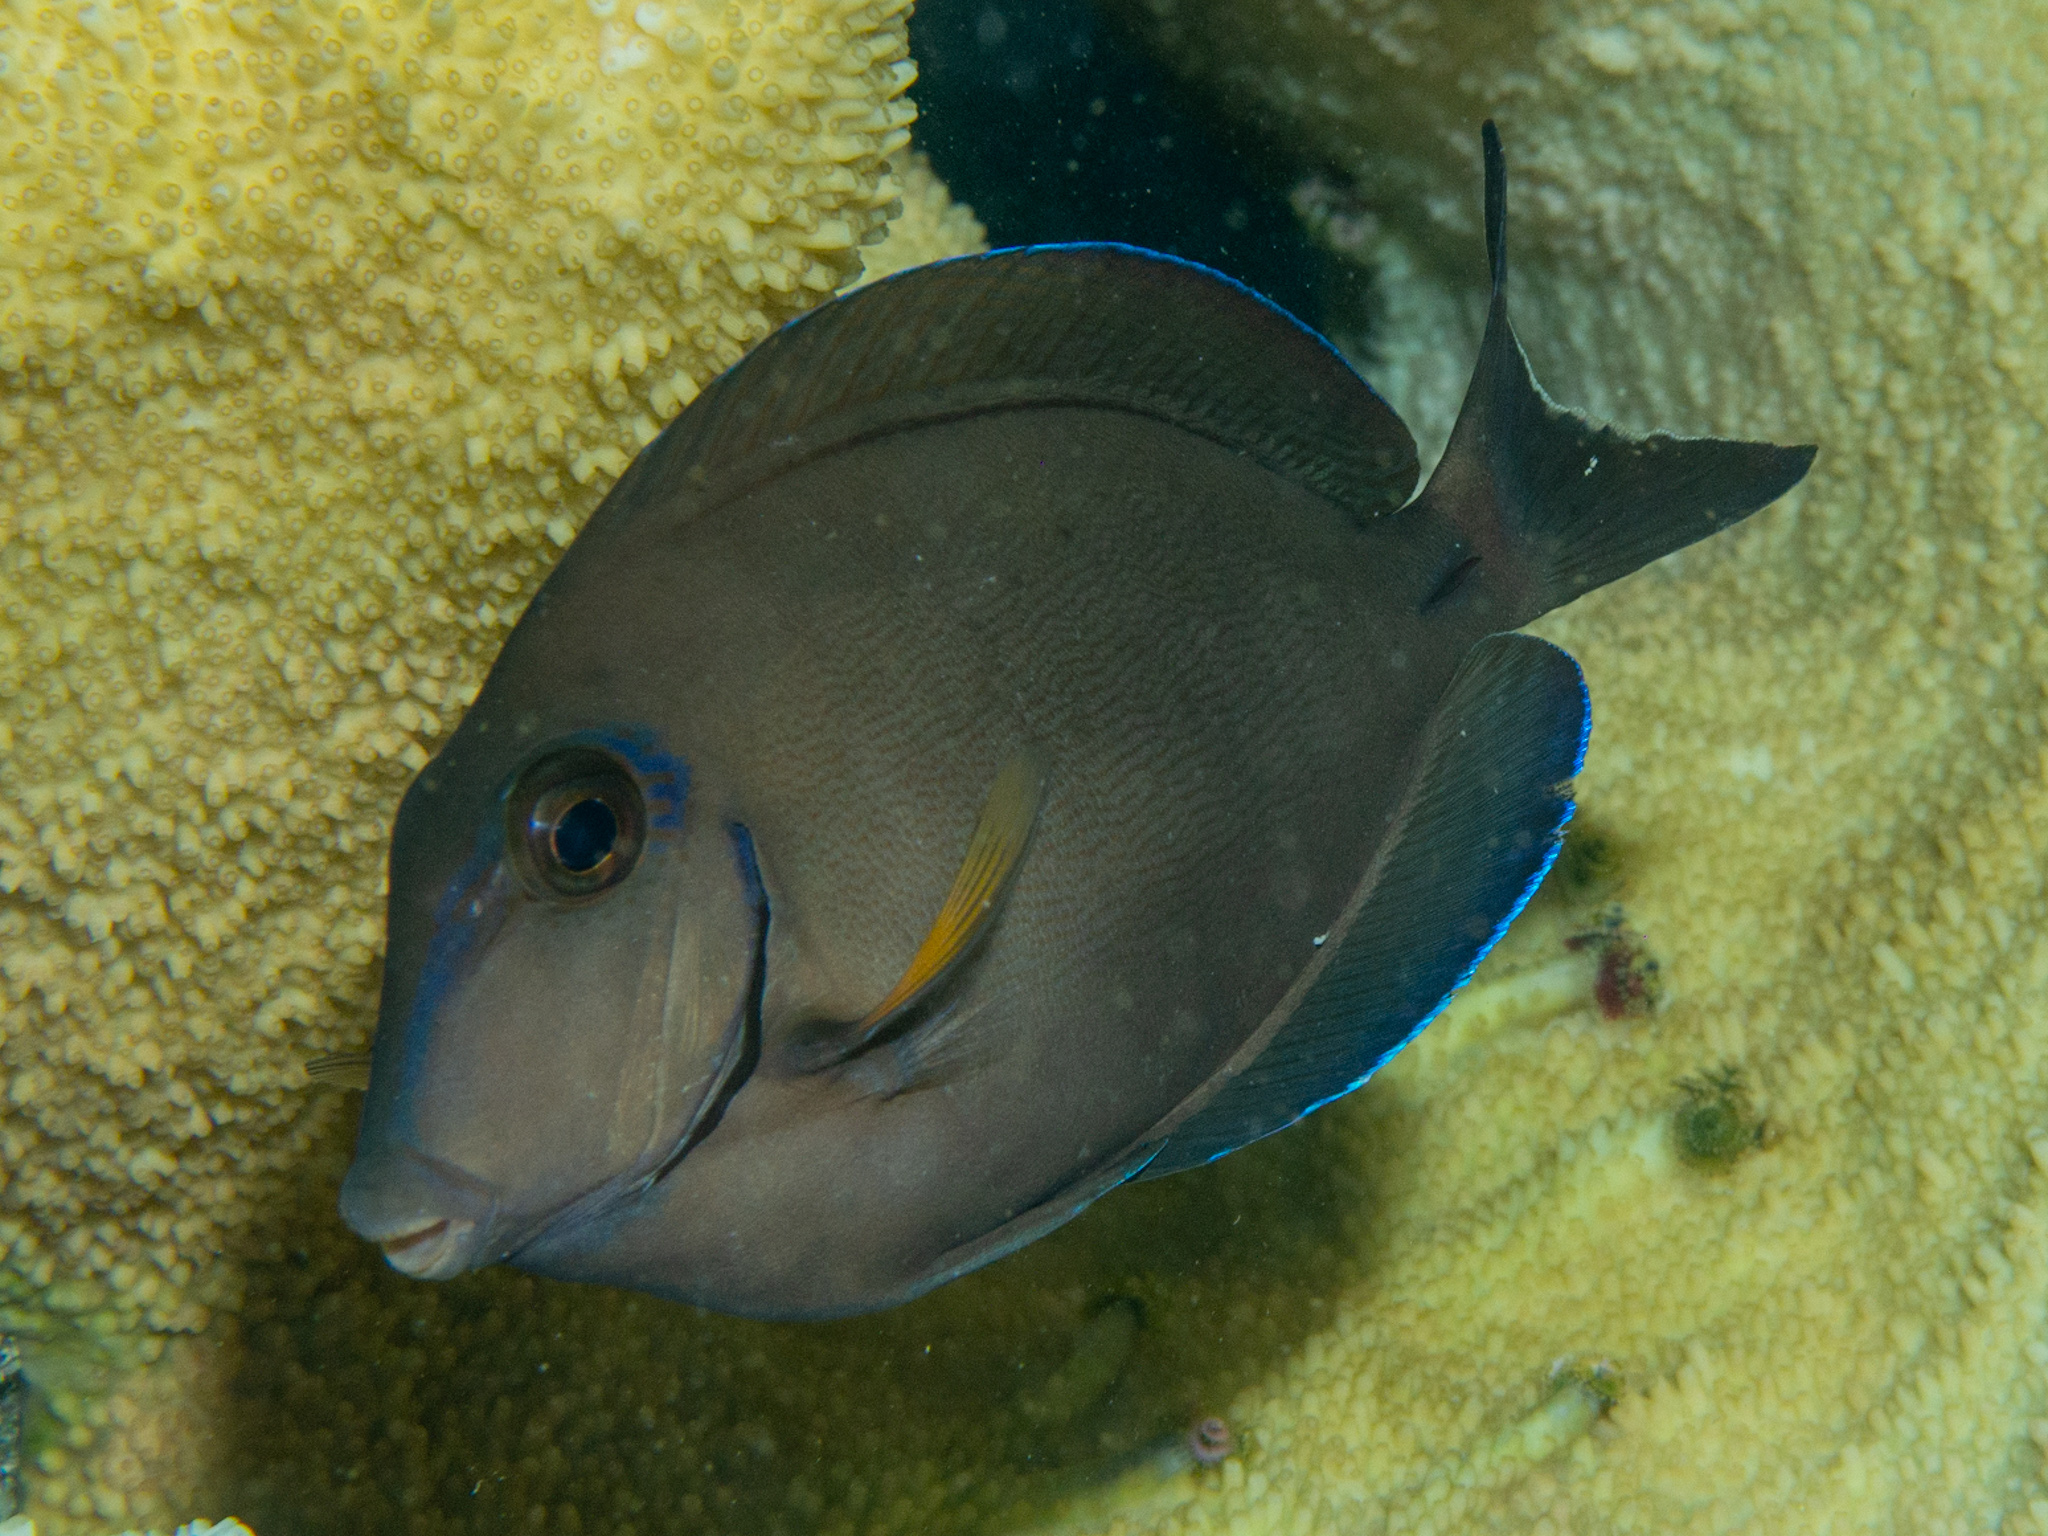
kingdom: Animalia
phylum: Chordata
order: Perciformes
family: Acanthuridae
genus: Acanthurus
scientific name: Acanthurus bahianus
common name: Ocean surgeon
